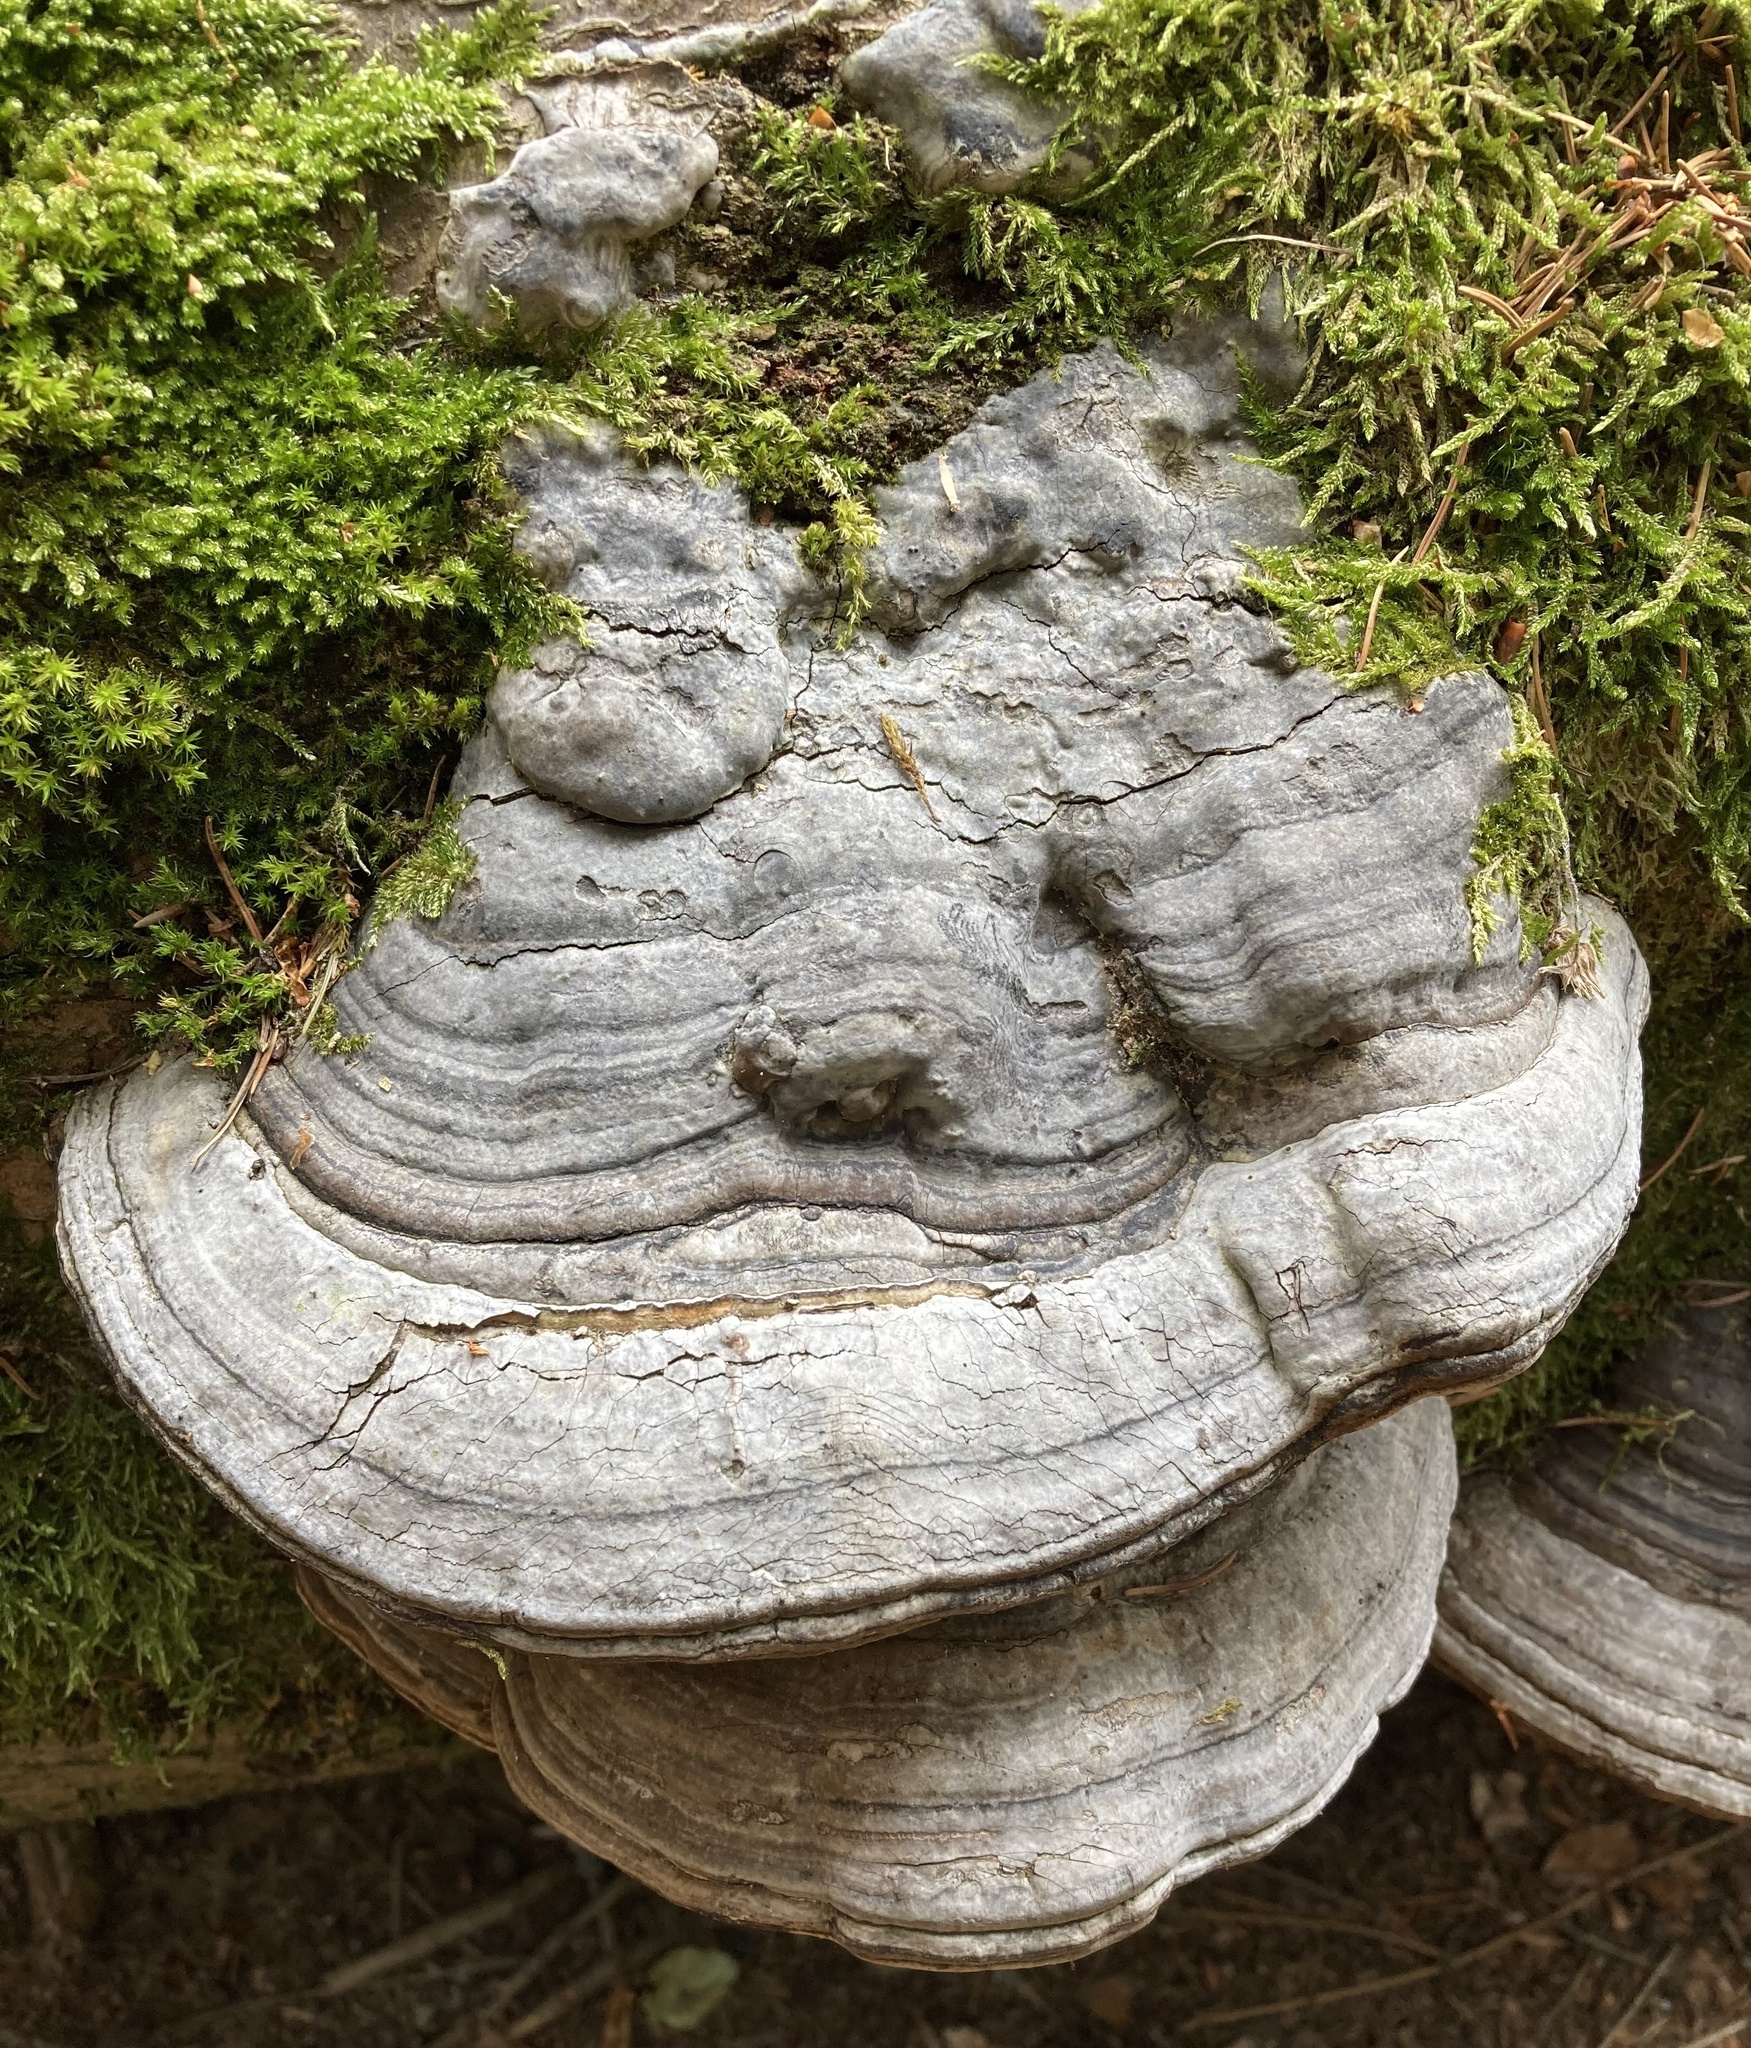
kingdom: Fungi
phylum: Basidiomycota
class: Agaricomycetes
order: Polyporales
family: Polyporaceae
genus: Fomes
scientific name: Fomes fomentarius
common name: Hoof fungus
